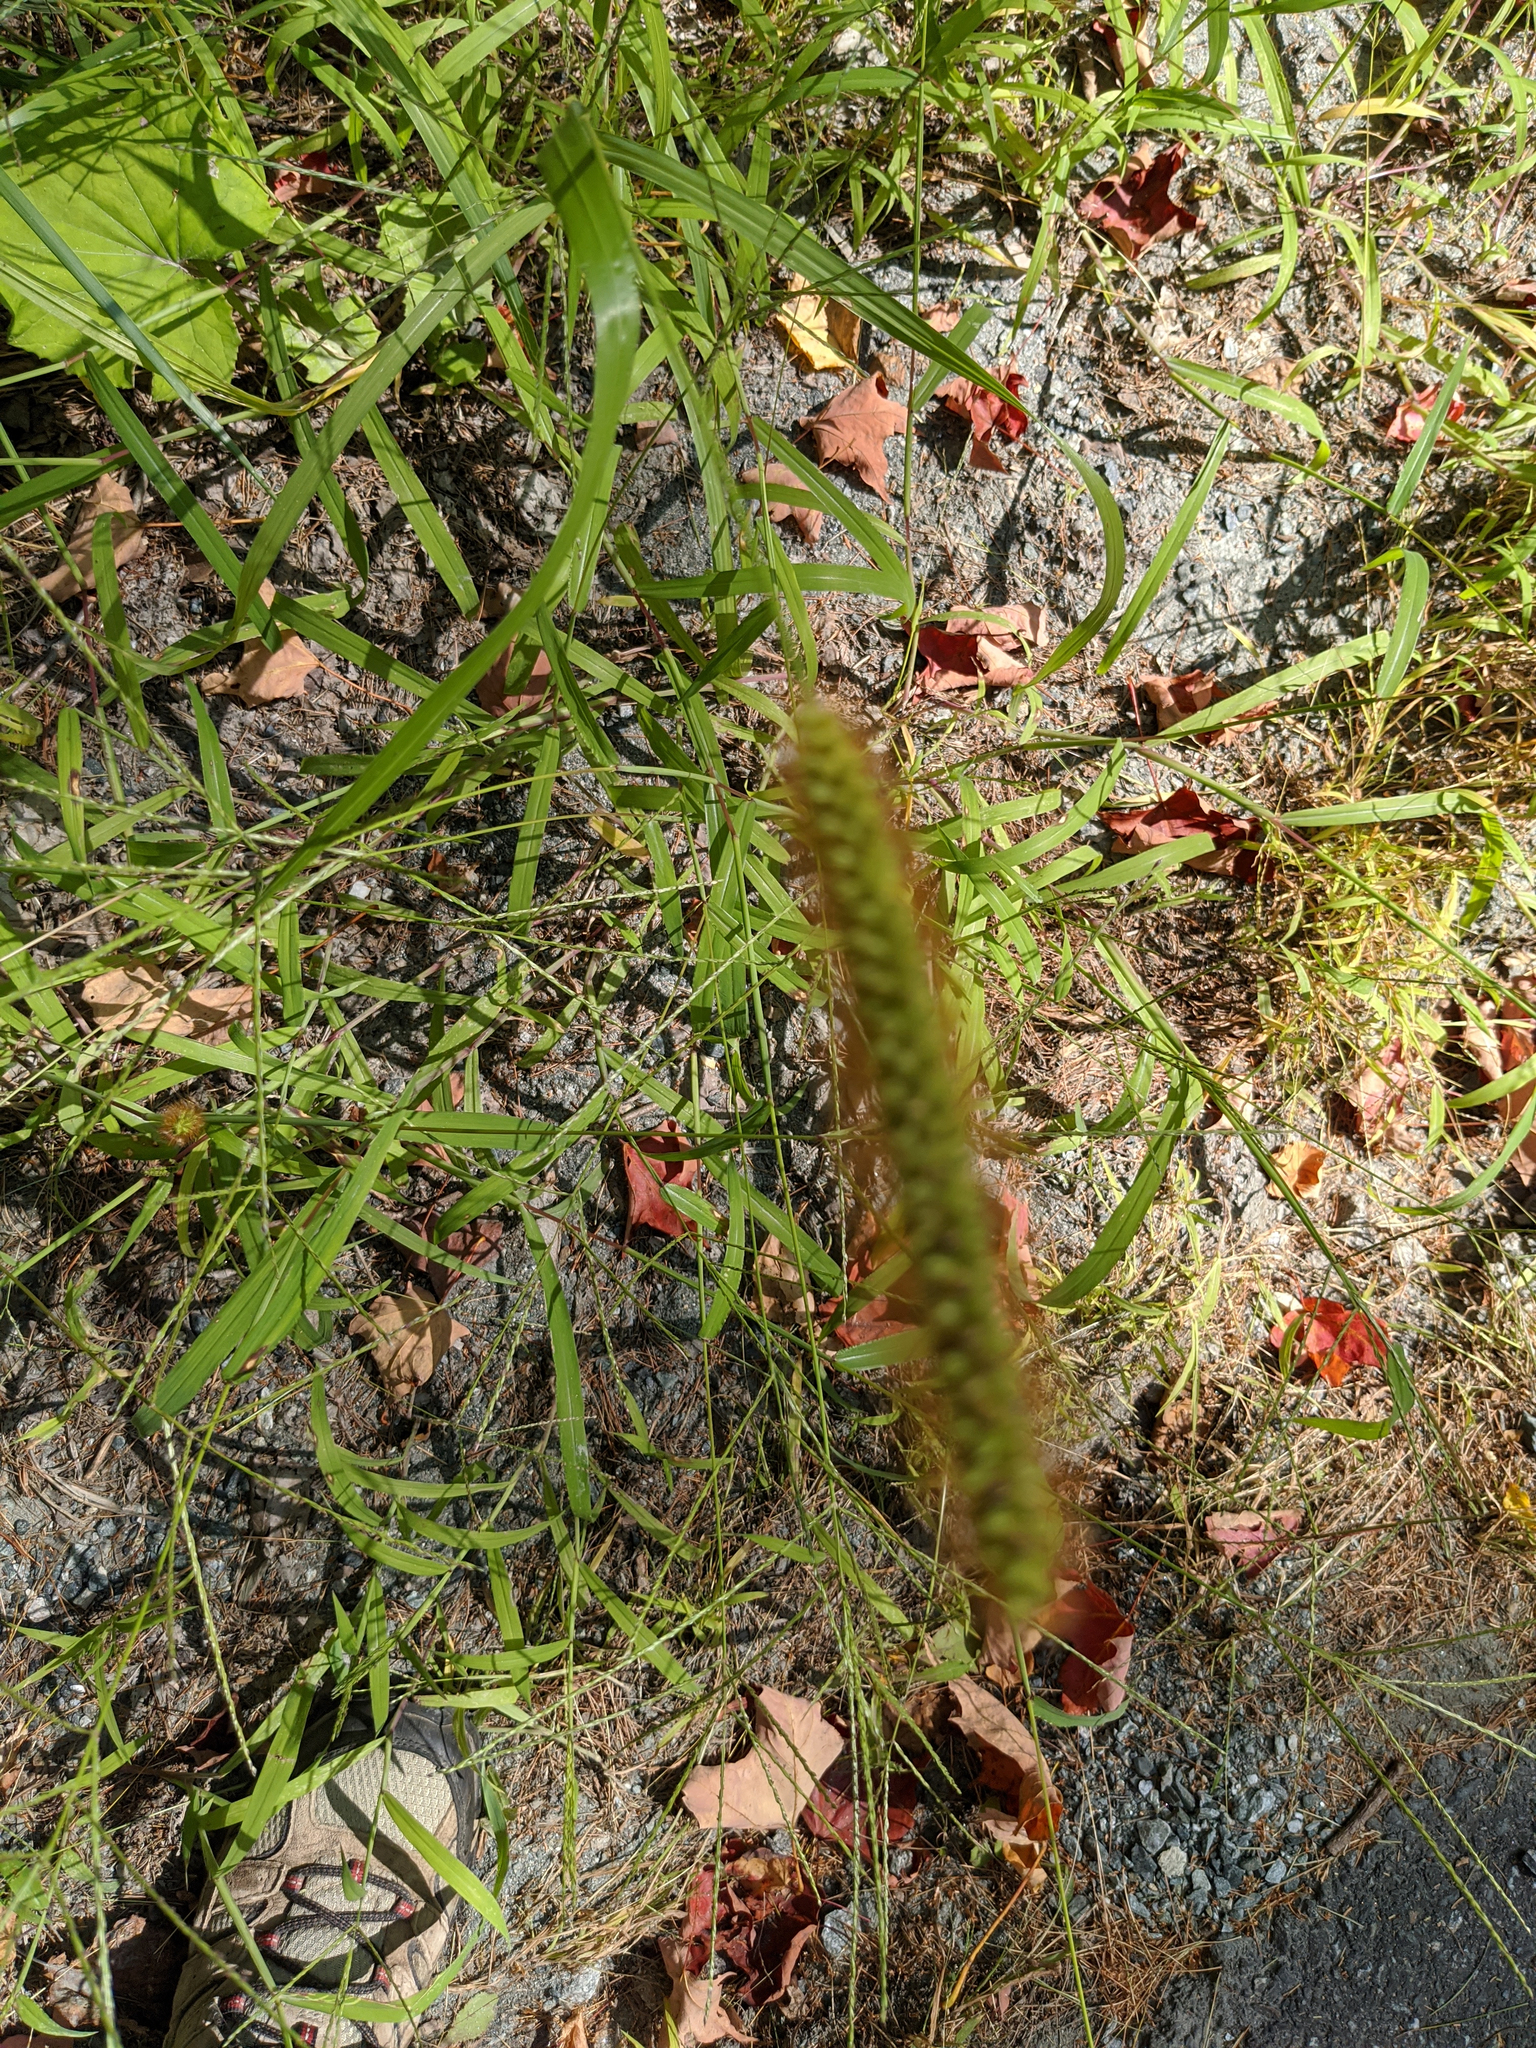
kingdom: Plantae
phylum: Tracheophyta
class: Liliopsida
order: Poales
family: Poaceae
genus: Setaria
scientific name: Setaria pumila
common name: Yellow bristle-grass
